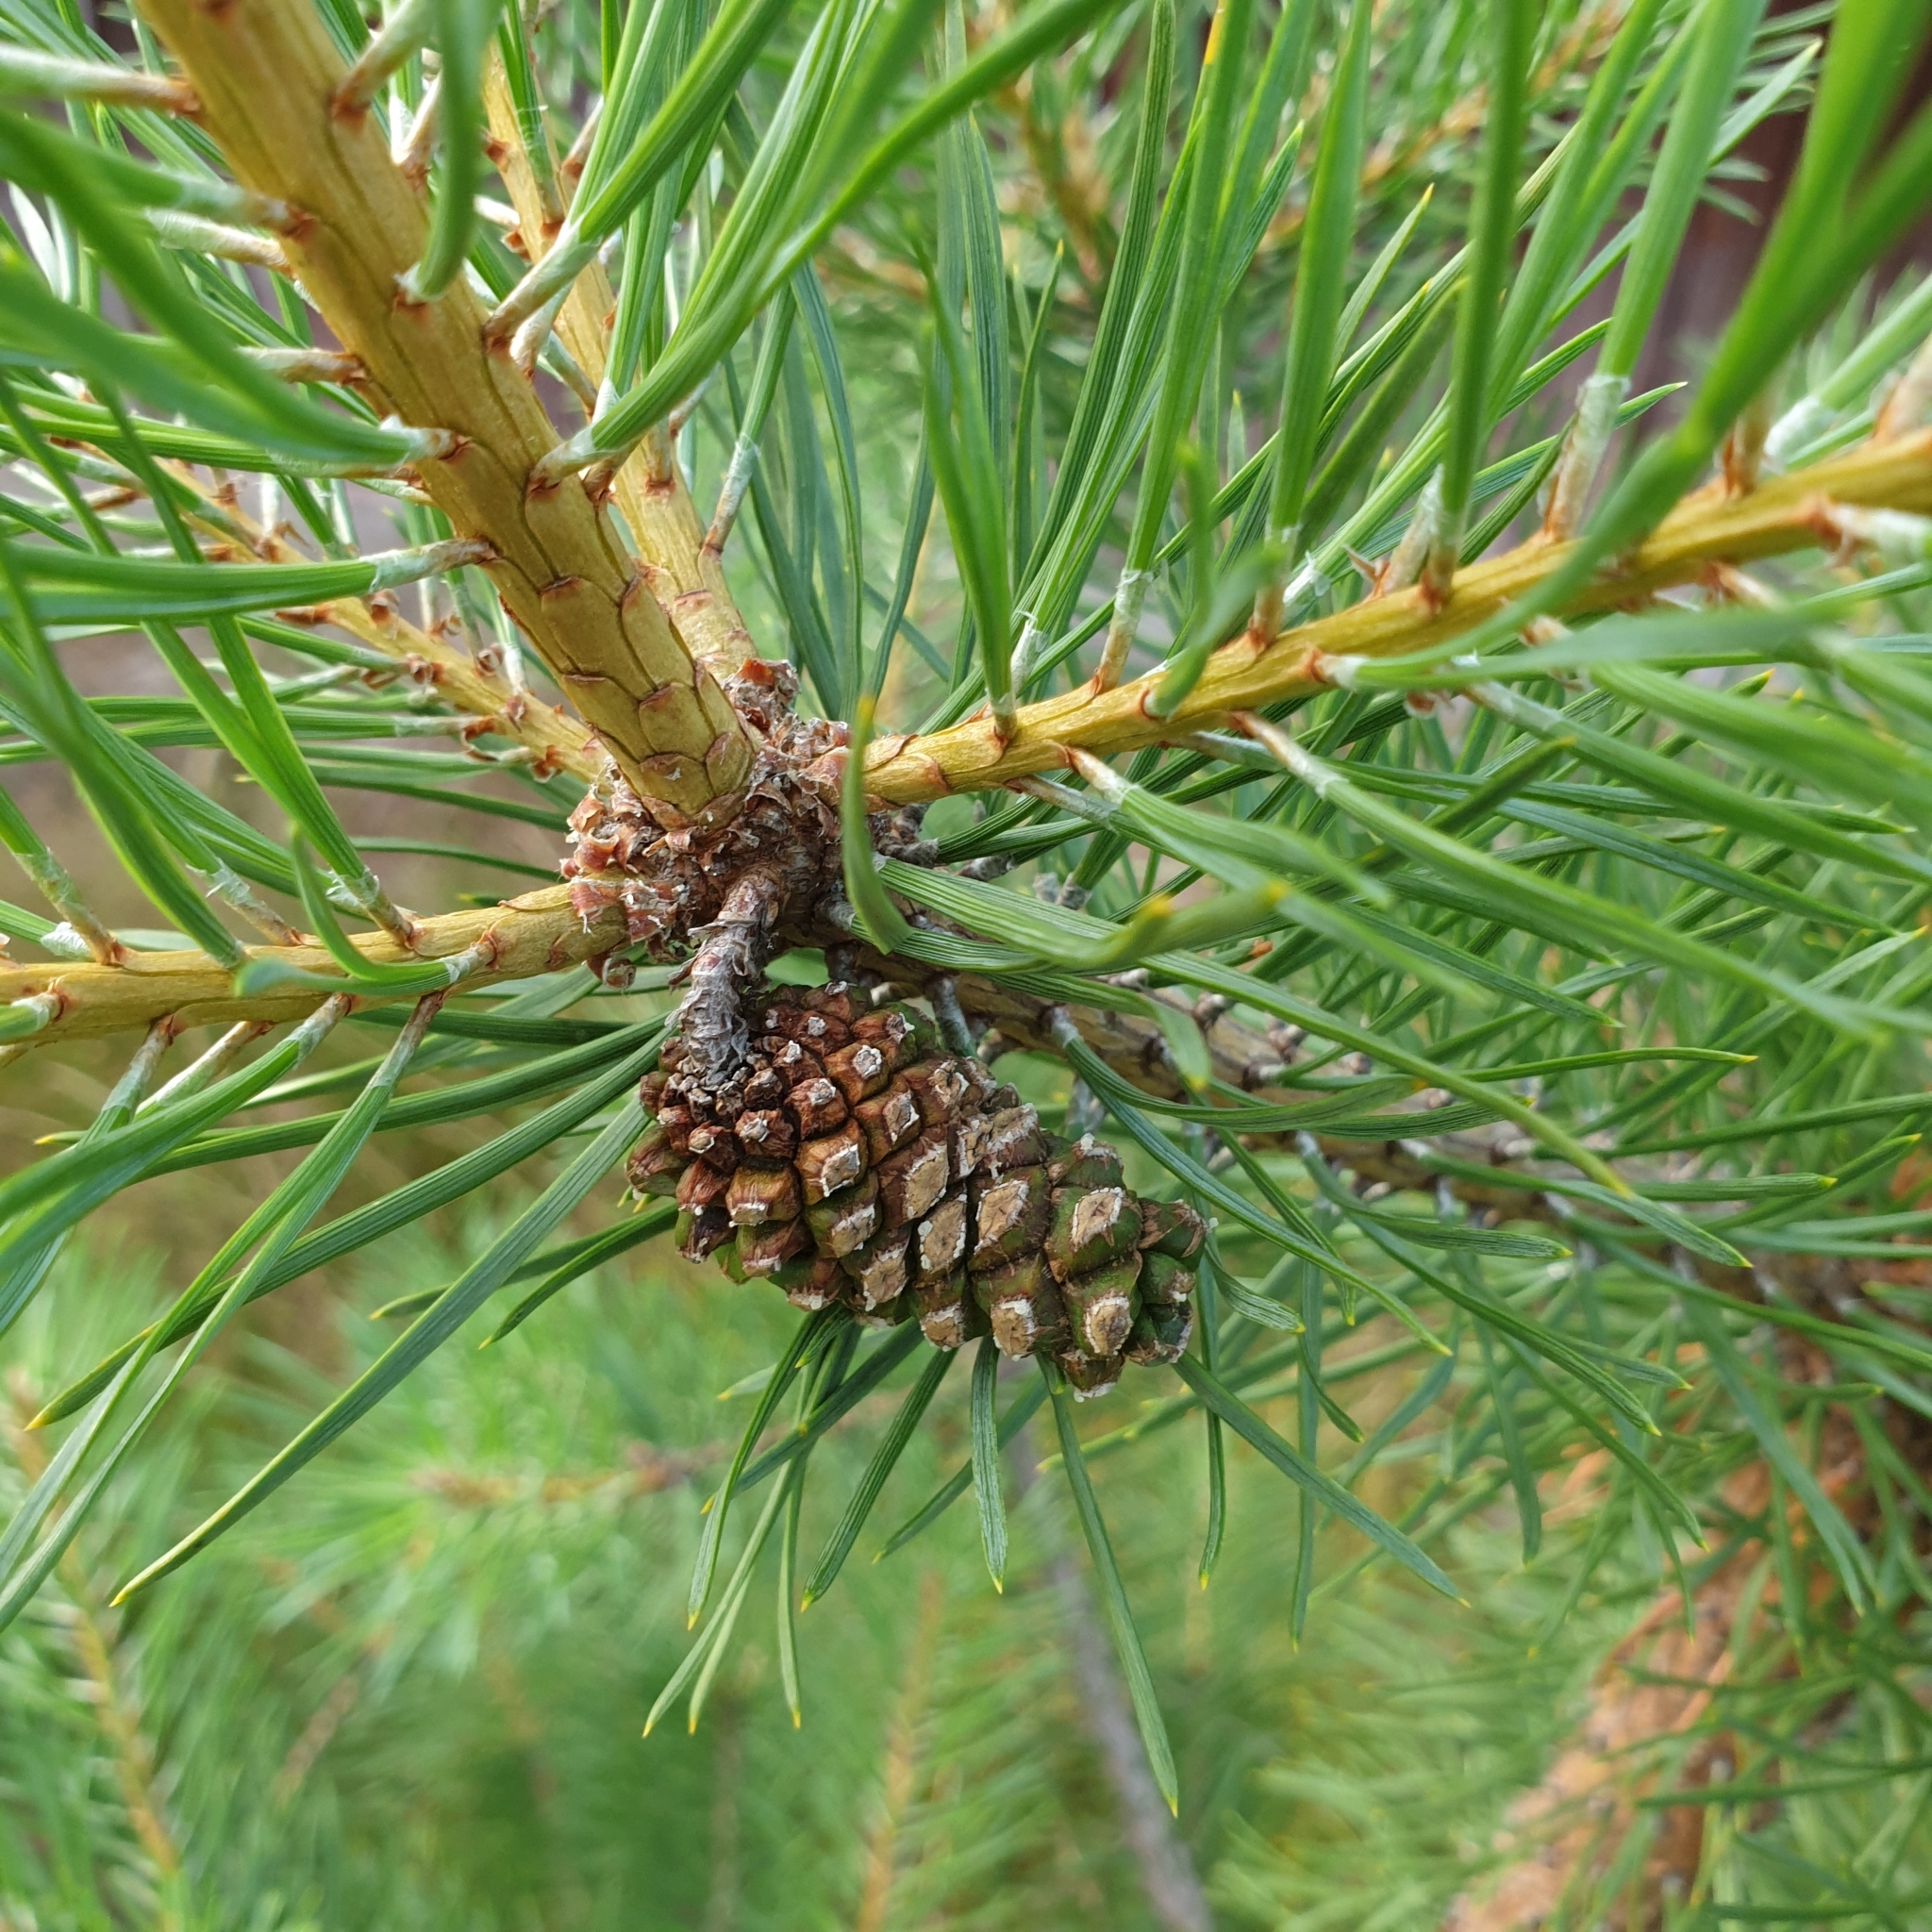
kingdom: Plantae
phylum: Tracheophyta
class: Pinopsida
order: Pinales
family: Pinaceae
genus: Pinus
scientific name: Pinus sylvestris
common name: Scots pine
